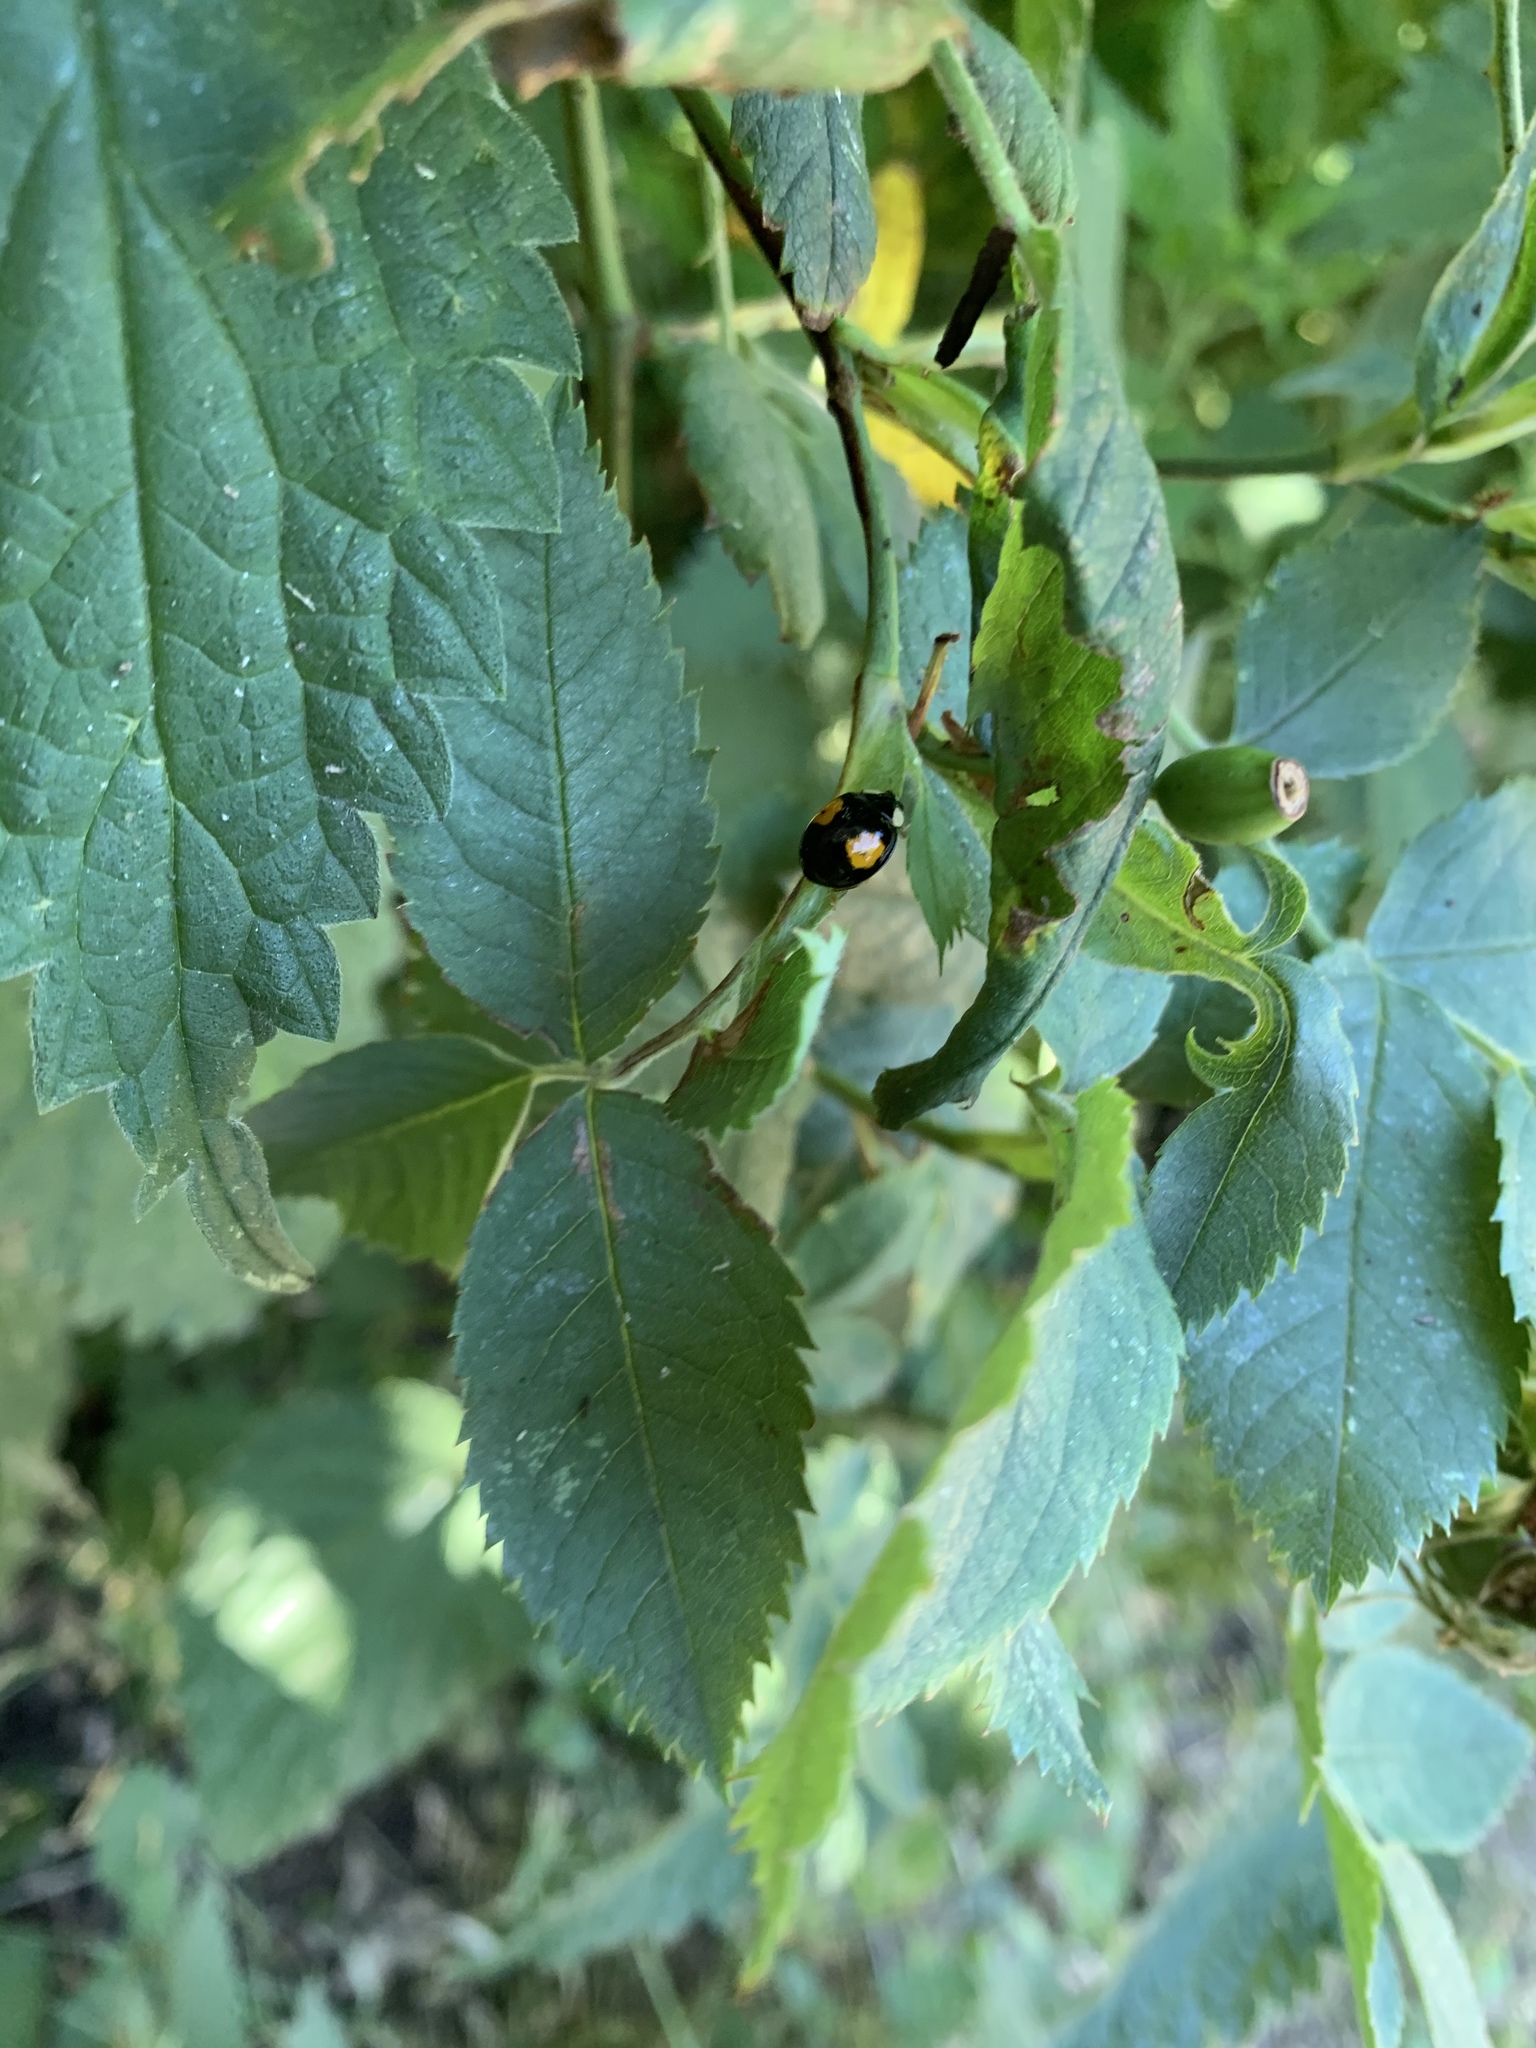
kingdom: Animalia
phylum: Arthropoda
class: Insecta
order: Coleoptera
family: Coccinellidae
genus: Harmonia
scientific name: Harmonia axyridis
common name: Harlequin ladybird
